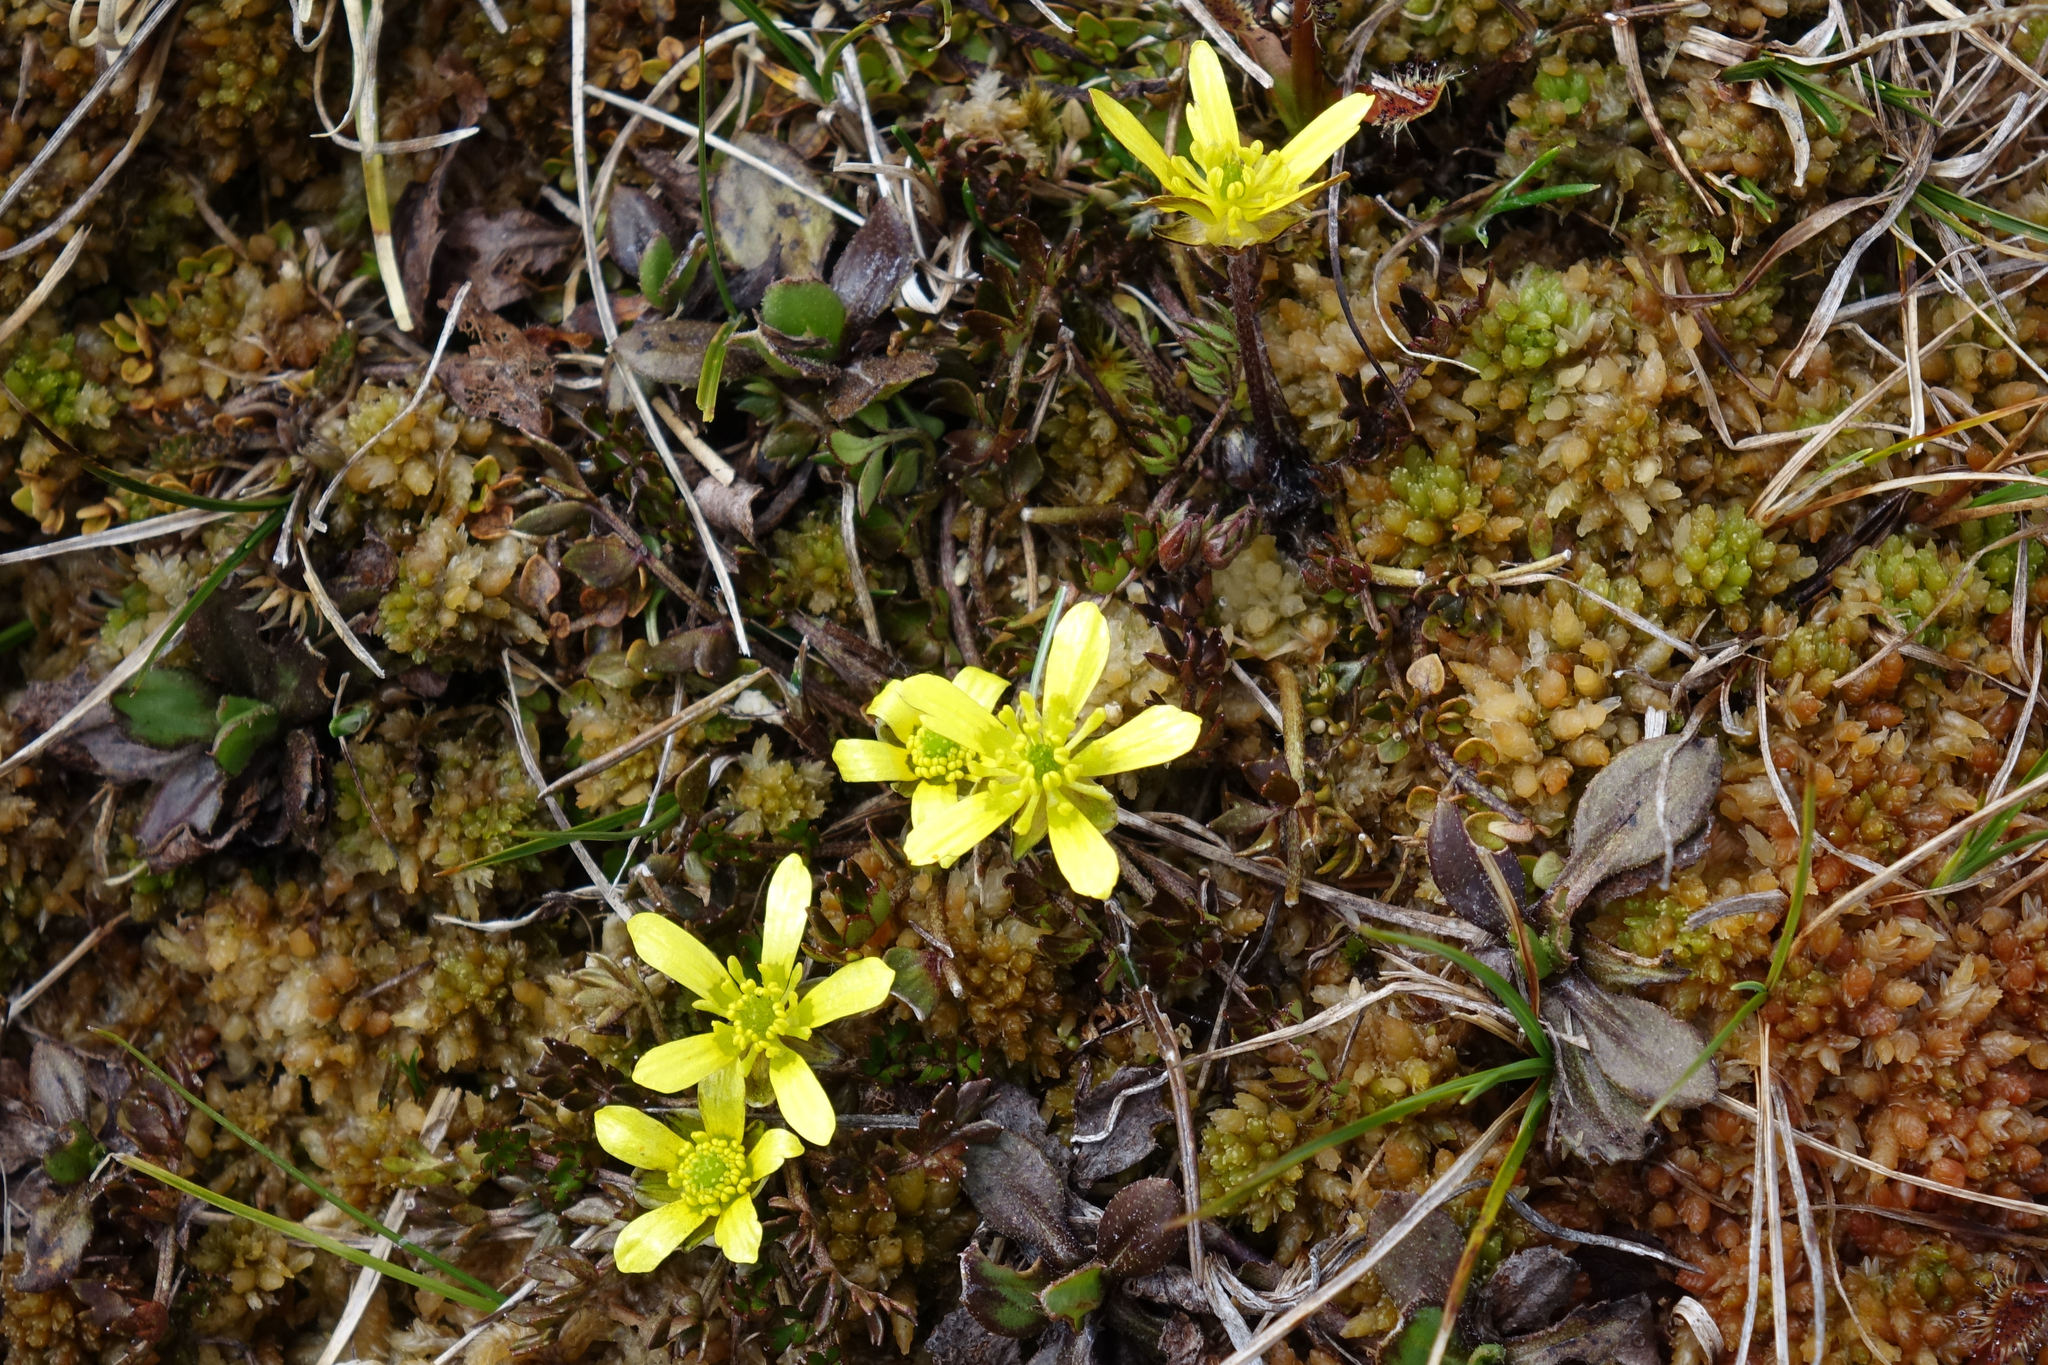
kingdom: Plantae
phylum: Tracheophyta
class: Magnoliopsida
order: Ranunculales
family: Ranunculaceae
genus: Ranunculus
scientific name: Ranunculus gracilipes
